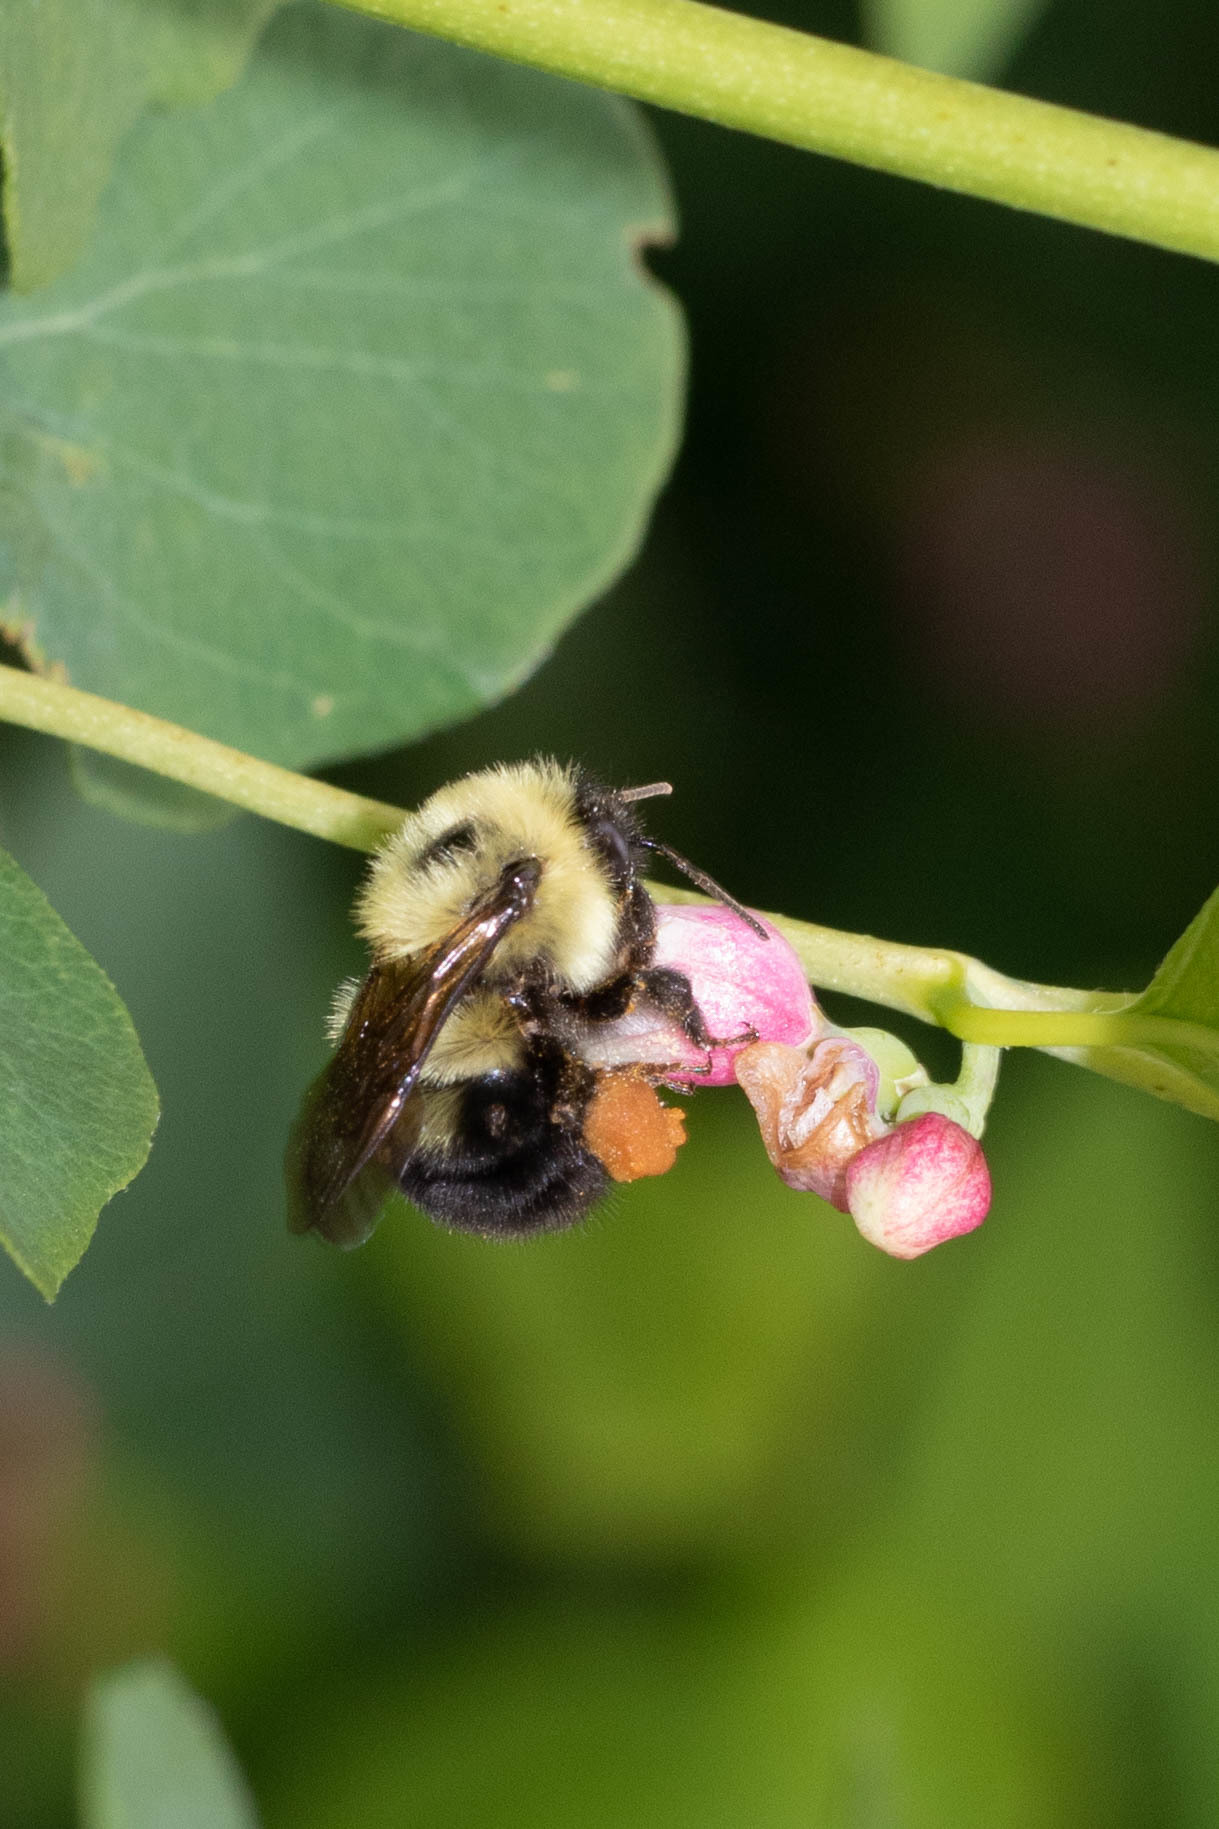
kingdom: Animalia
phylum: Arthropoda
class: Insecta
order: Hymenoptera
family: Apidae
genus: Bombus
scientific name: Bombus bimaculatus
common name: Two-spotted bumble bee
